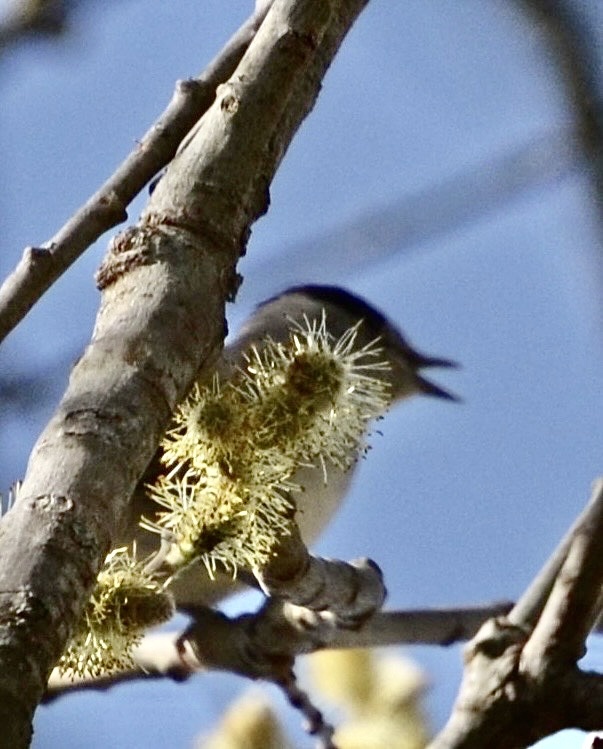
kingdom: Animalia
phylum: Chordata
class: Aves
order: Passeriformes
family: Sylviidae
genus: Sylvia
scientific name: Sylvia atricapilla
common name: Eurasian blackcap
